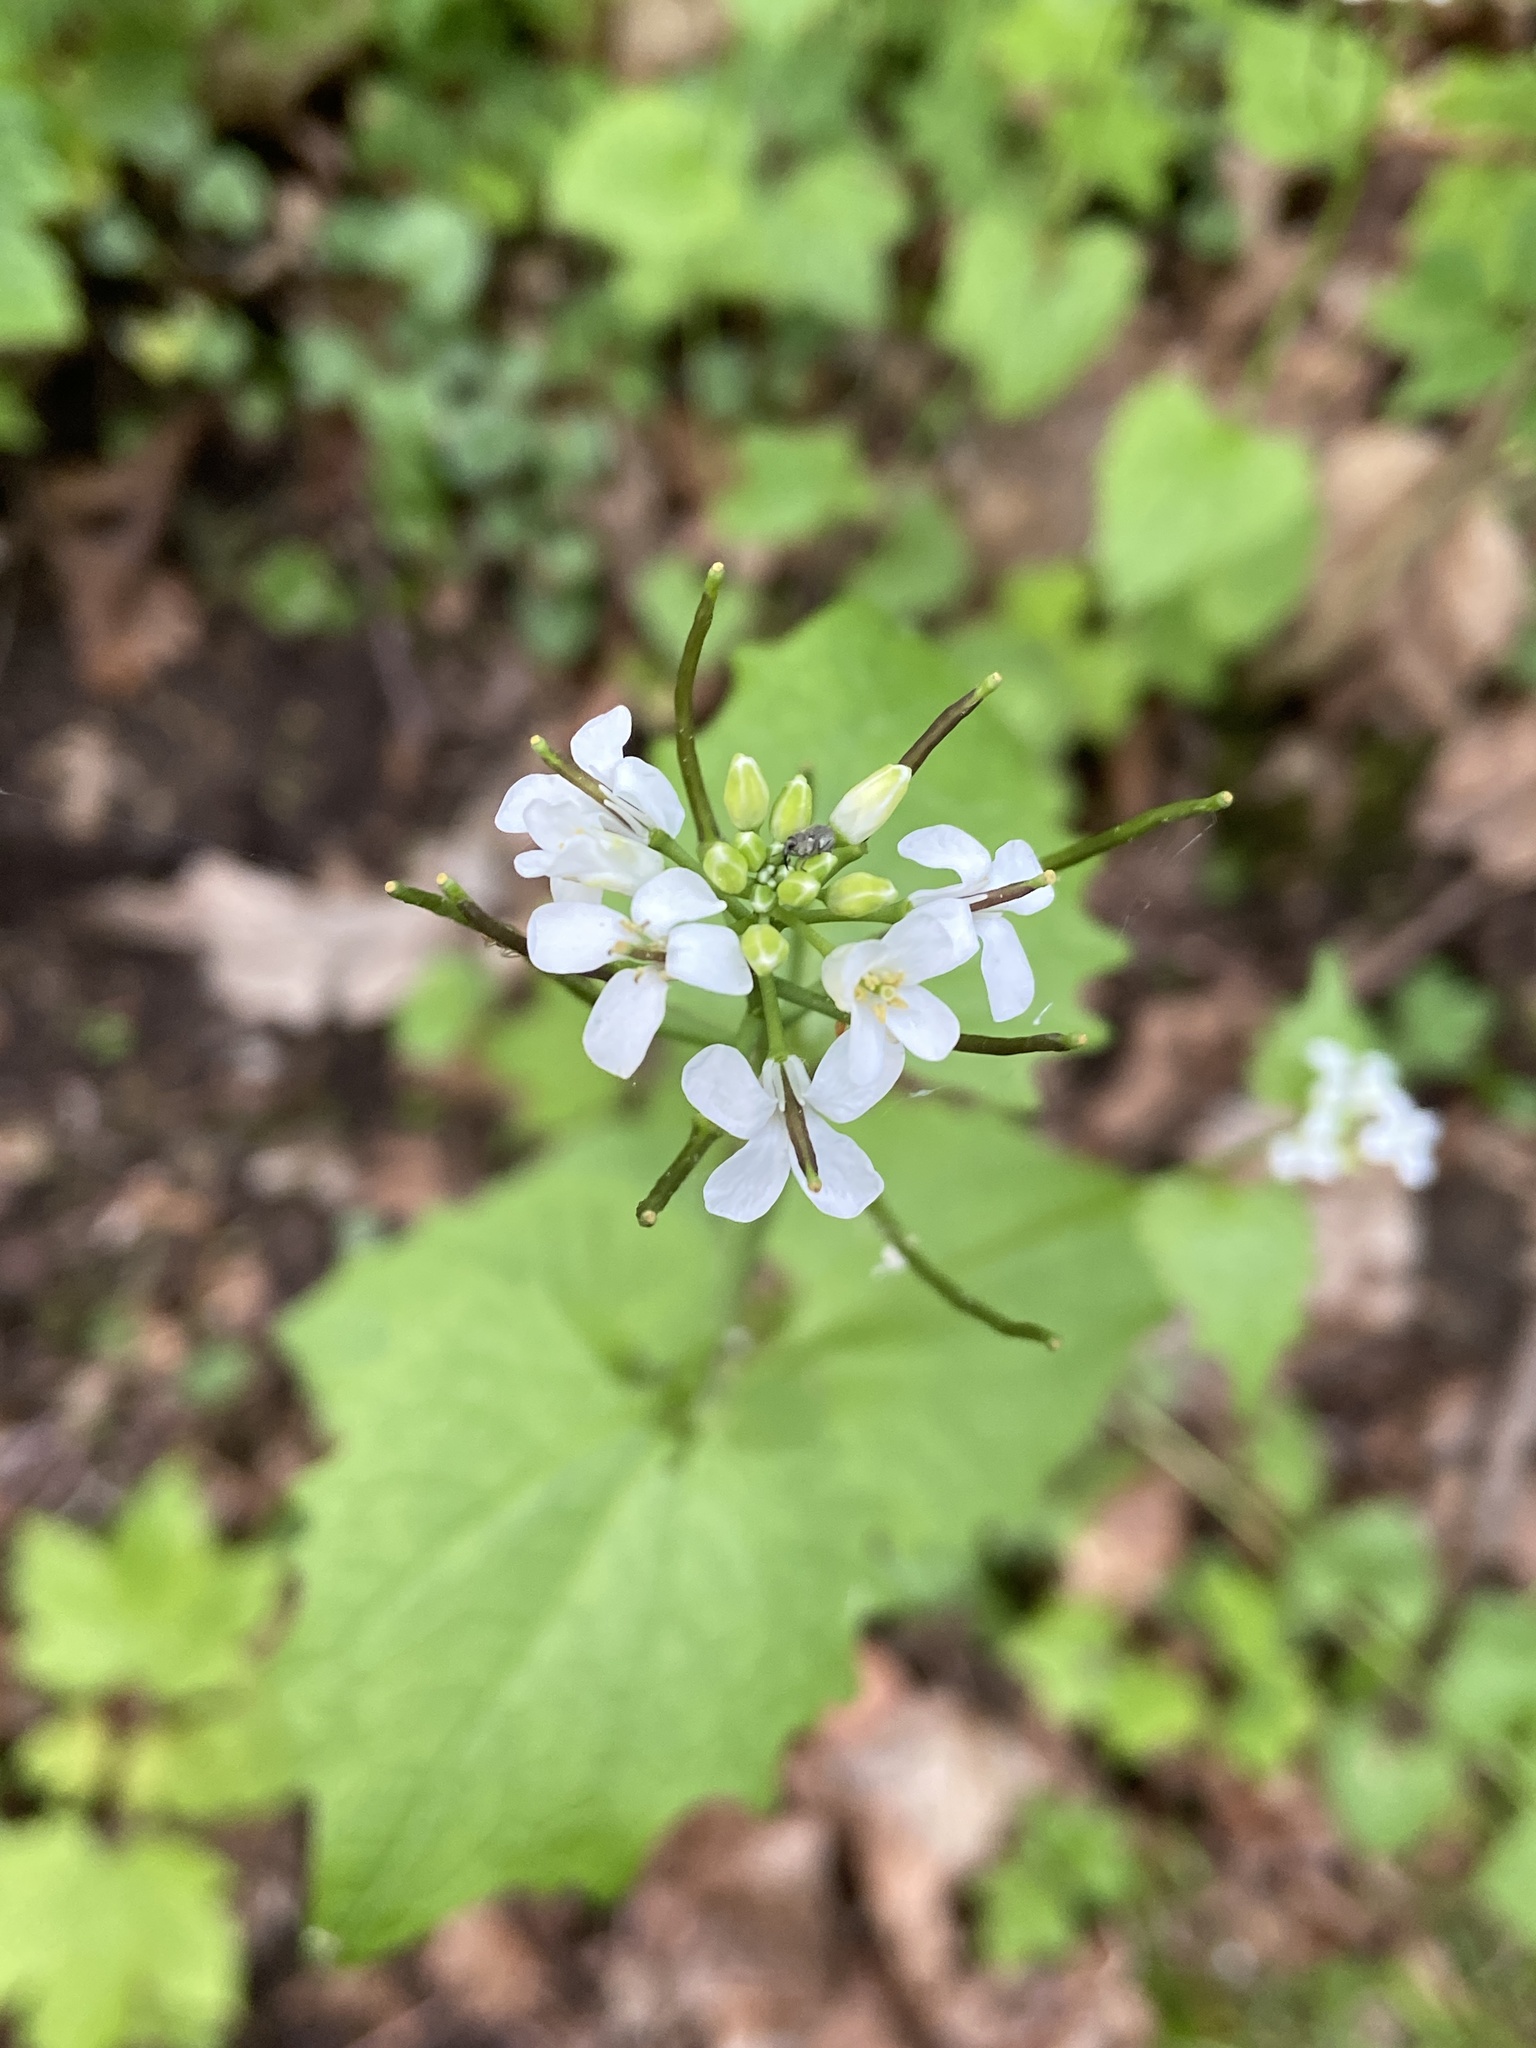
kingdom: Plantae
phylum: Tracheophyta
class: Magnoliopsida
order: Brassicales
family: Brassicaceae
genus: Alliaria
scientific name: Alliaria petiolata
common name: Garlic mustard
